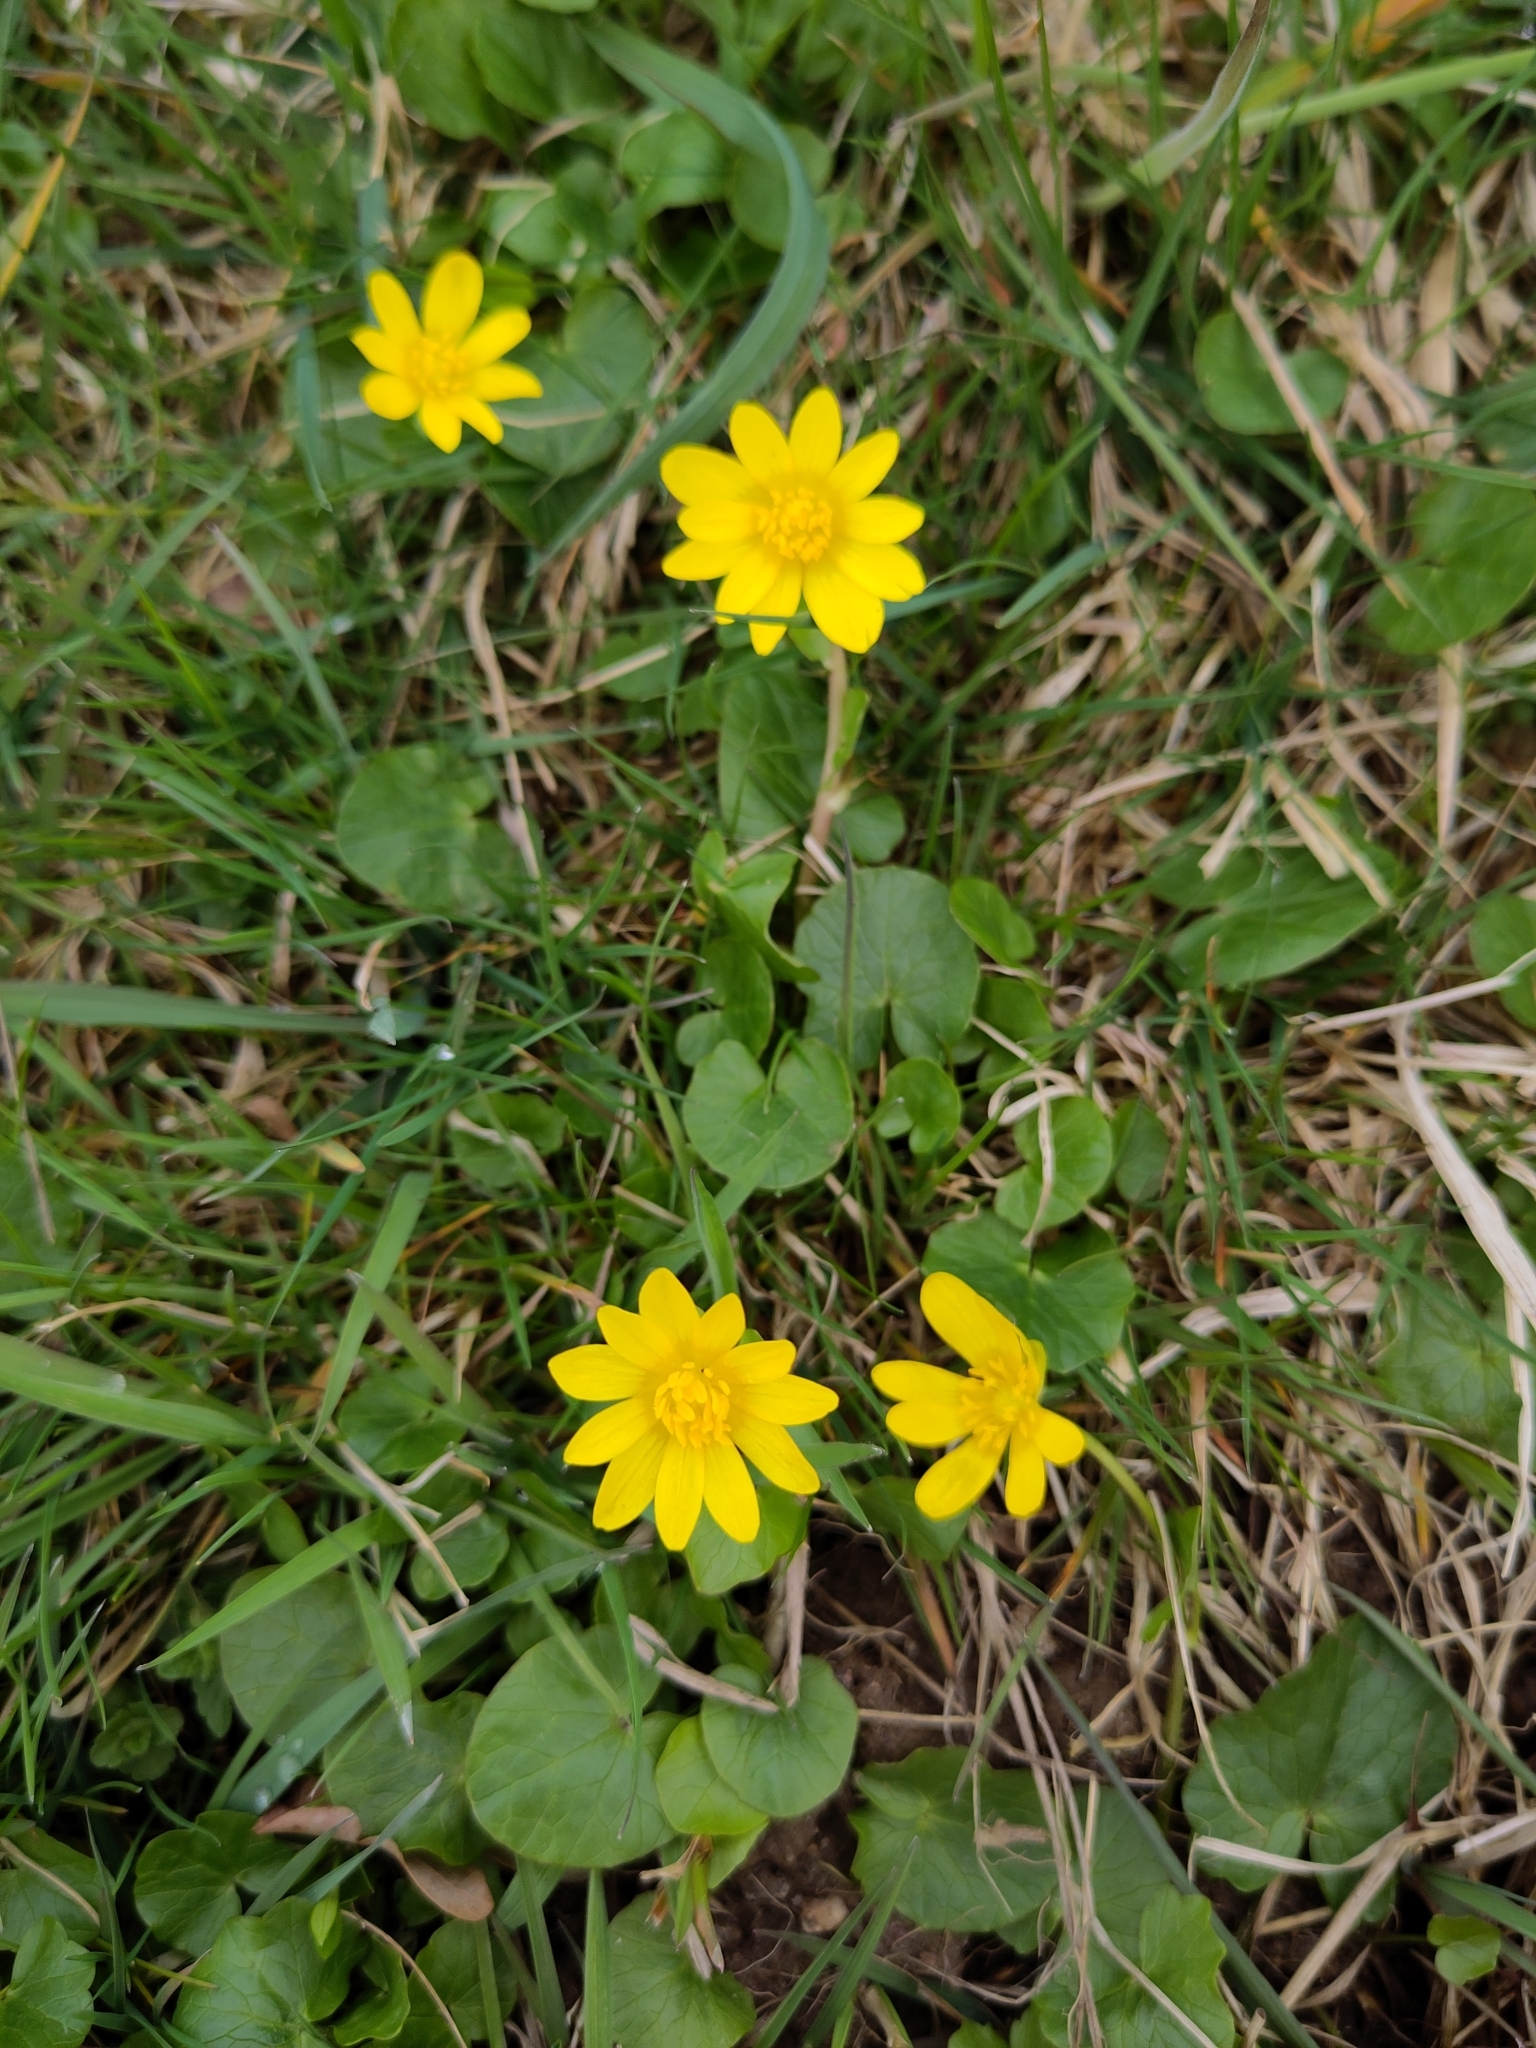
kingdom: Plantae
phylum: Tracheophyta
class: Magnoliopsida
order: Ranunculales
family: Ranunculaceae
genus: Ficaria
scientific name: Ficaria verna
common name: Lesser celandine
